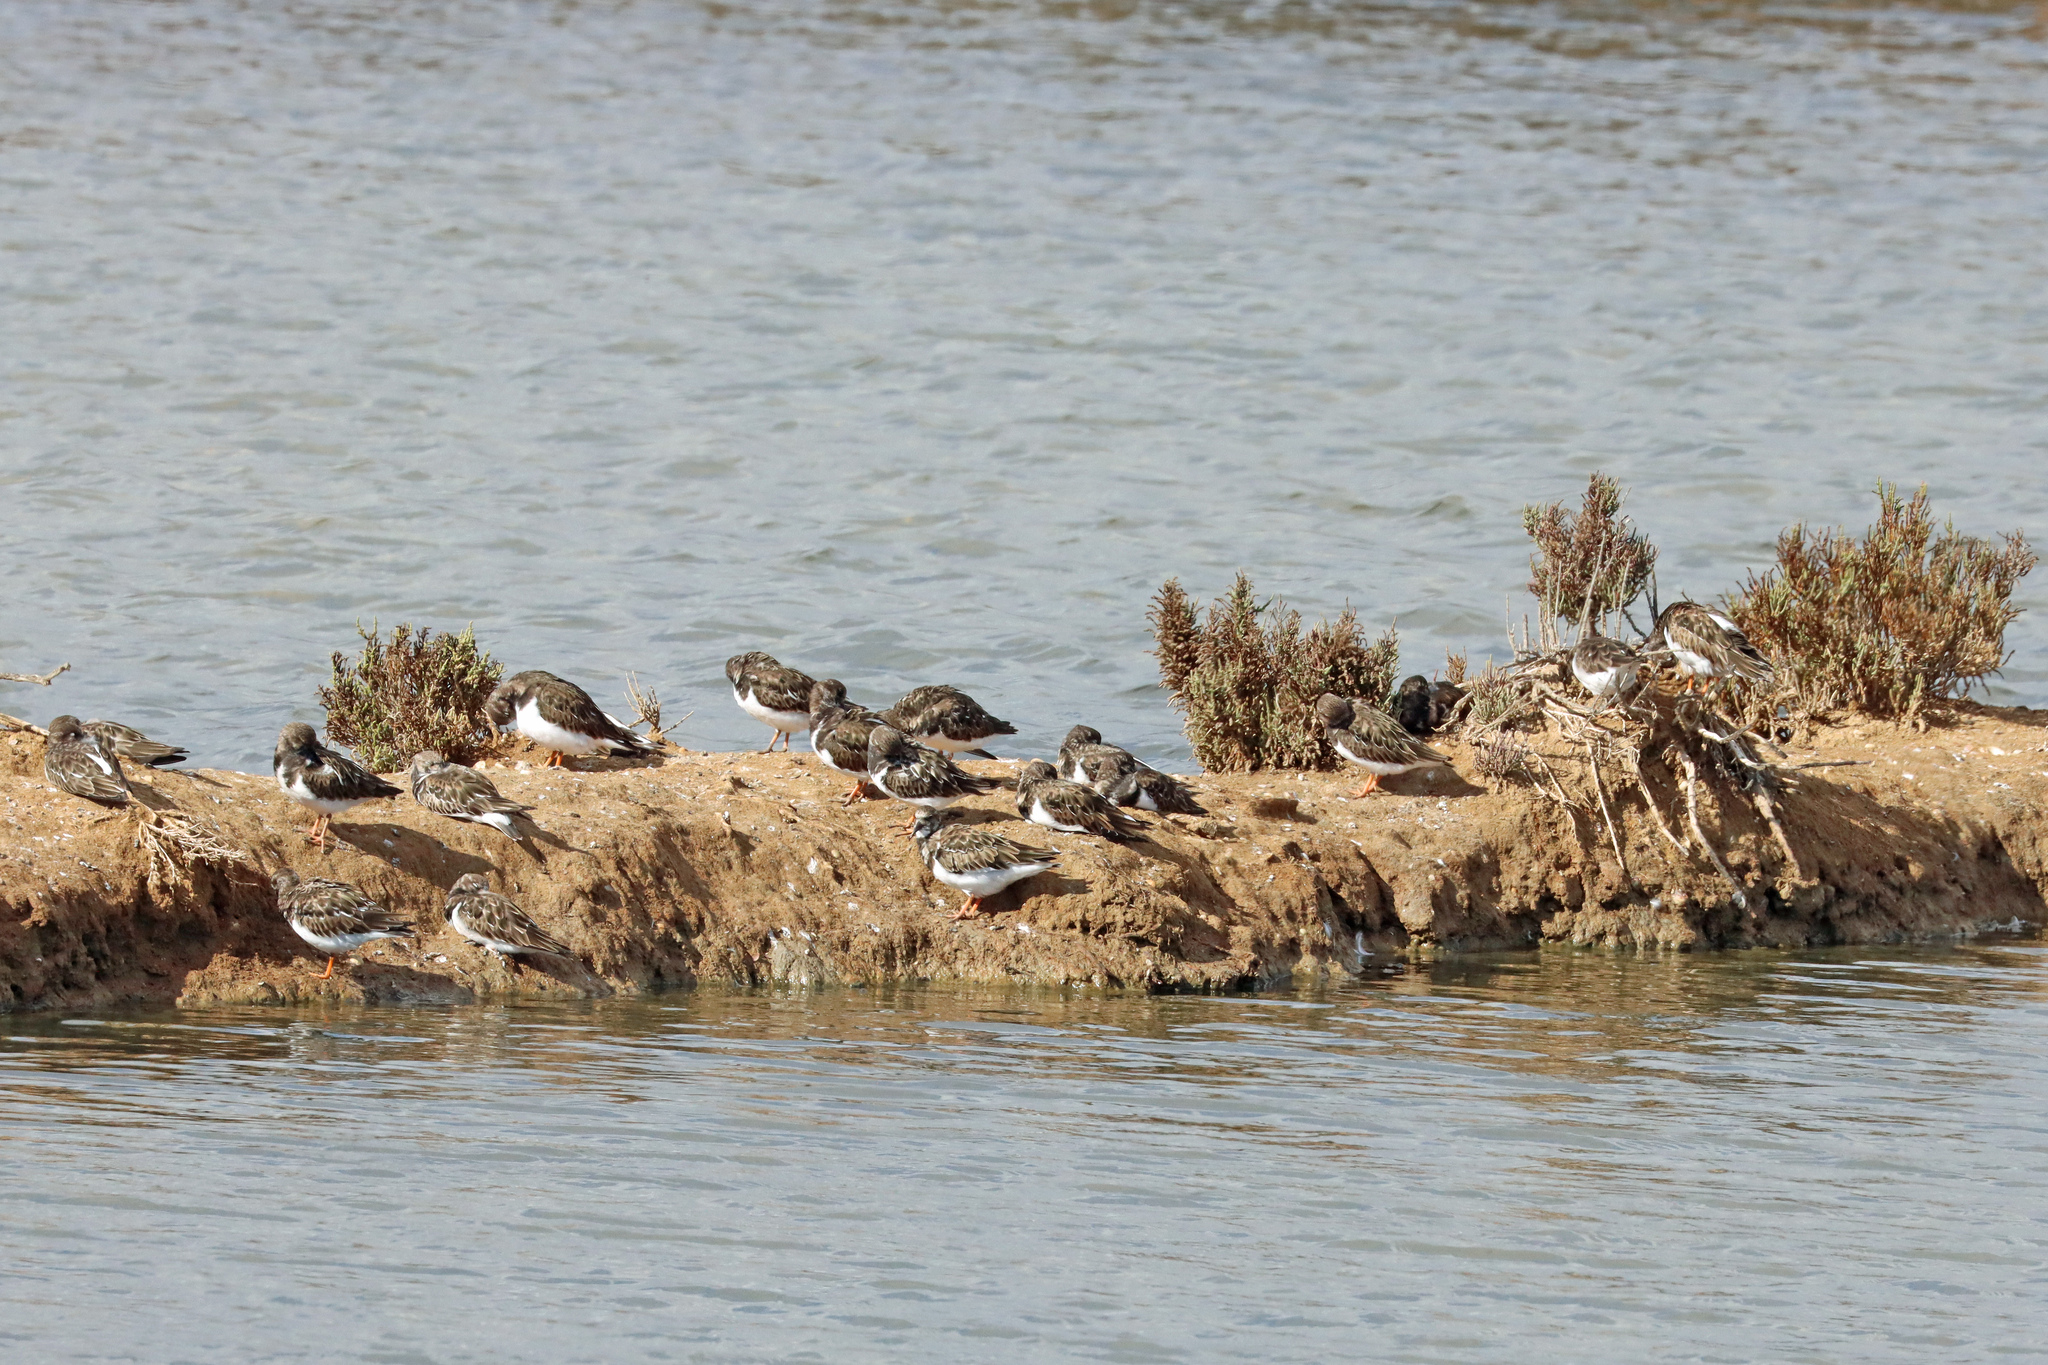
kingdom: Animalia
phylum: Chordata
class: Aves
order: Charadriiformes
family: Scolopacidae
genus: Arenaria
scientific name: Arenaria interpres
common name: Ruddy turnstone
